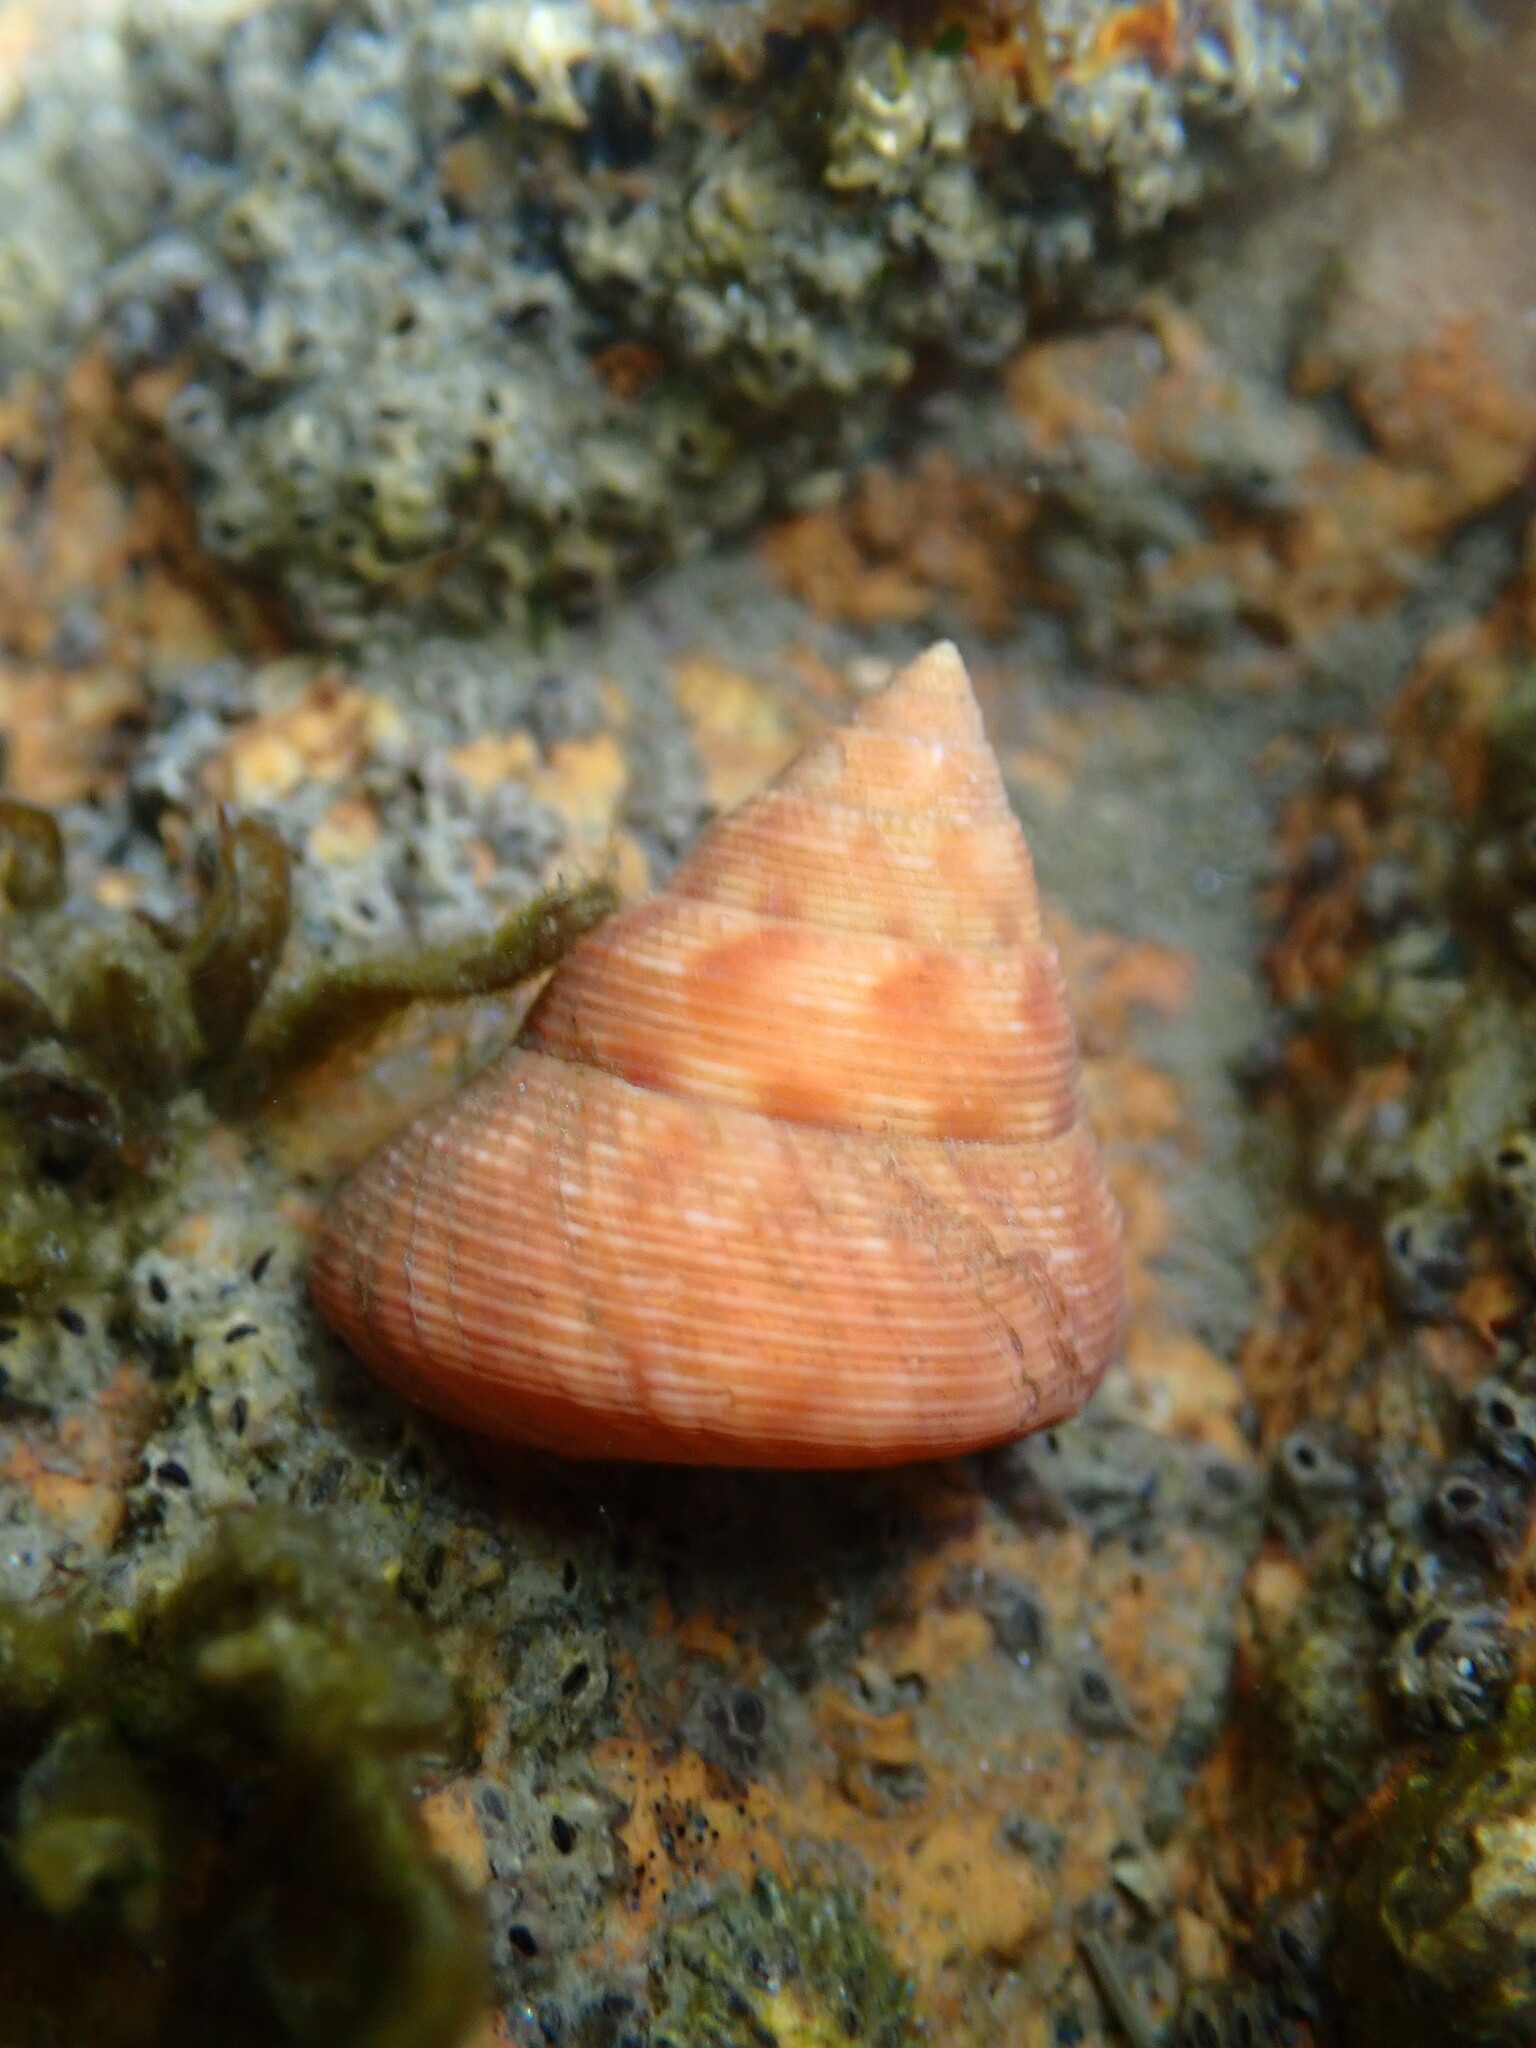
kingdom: Animalia
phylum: Mollusca
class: Gastropoda
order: Trochida
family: Calliostomatidae
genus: Calliostoma
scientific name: Calliostoma gloriosum
